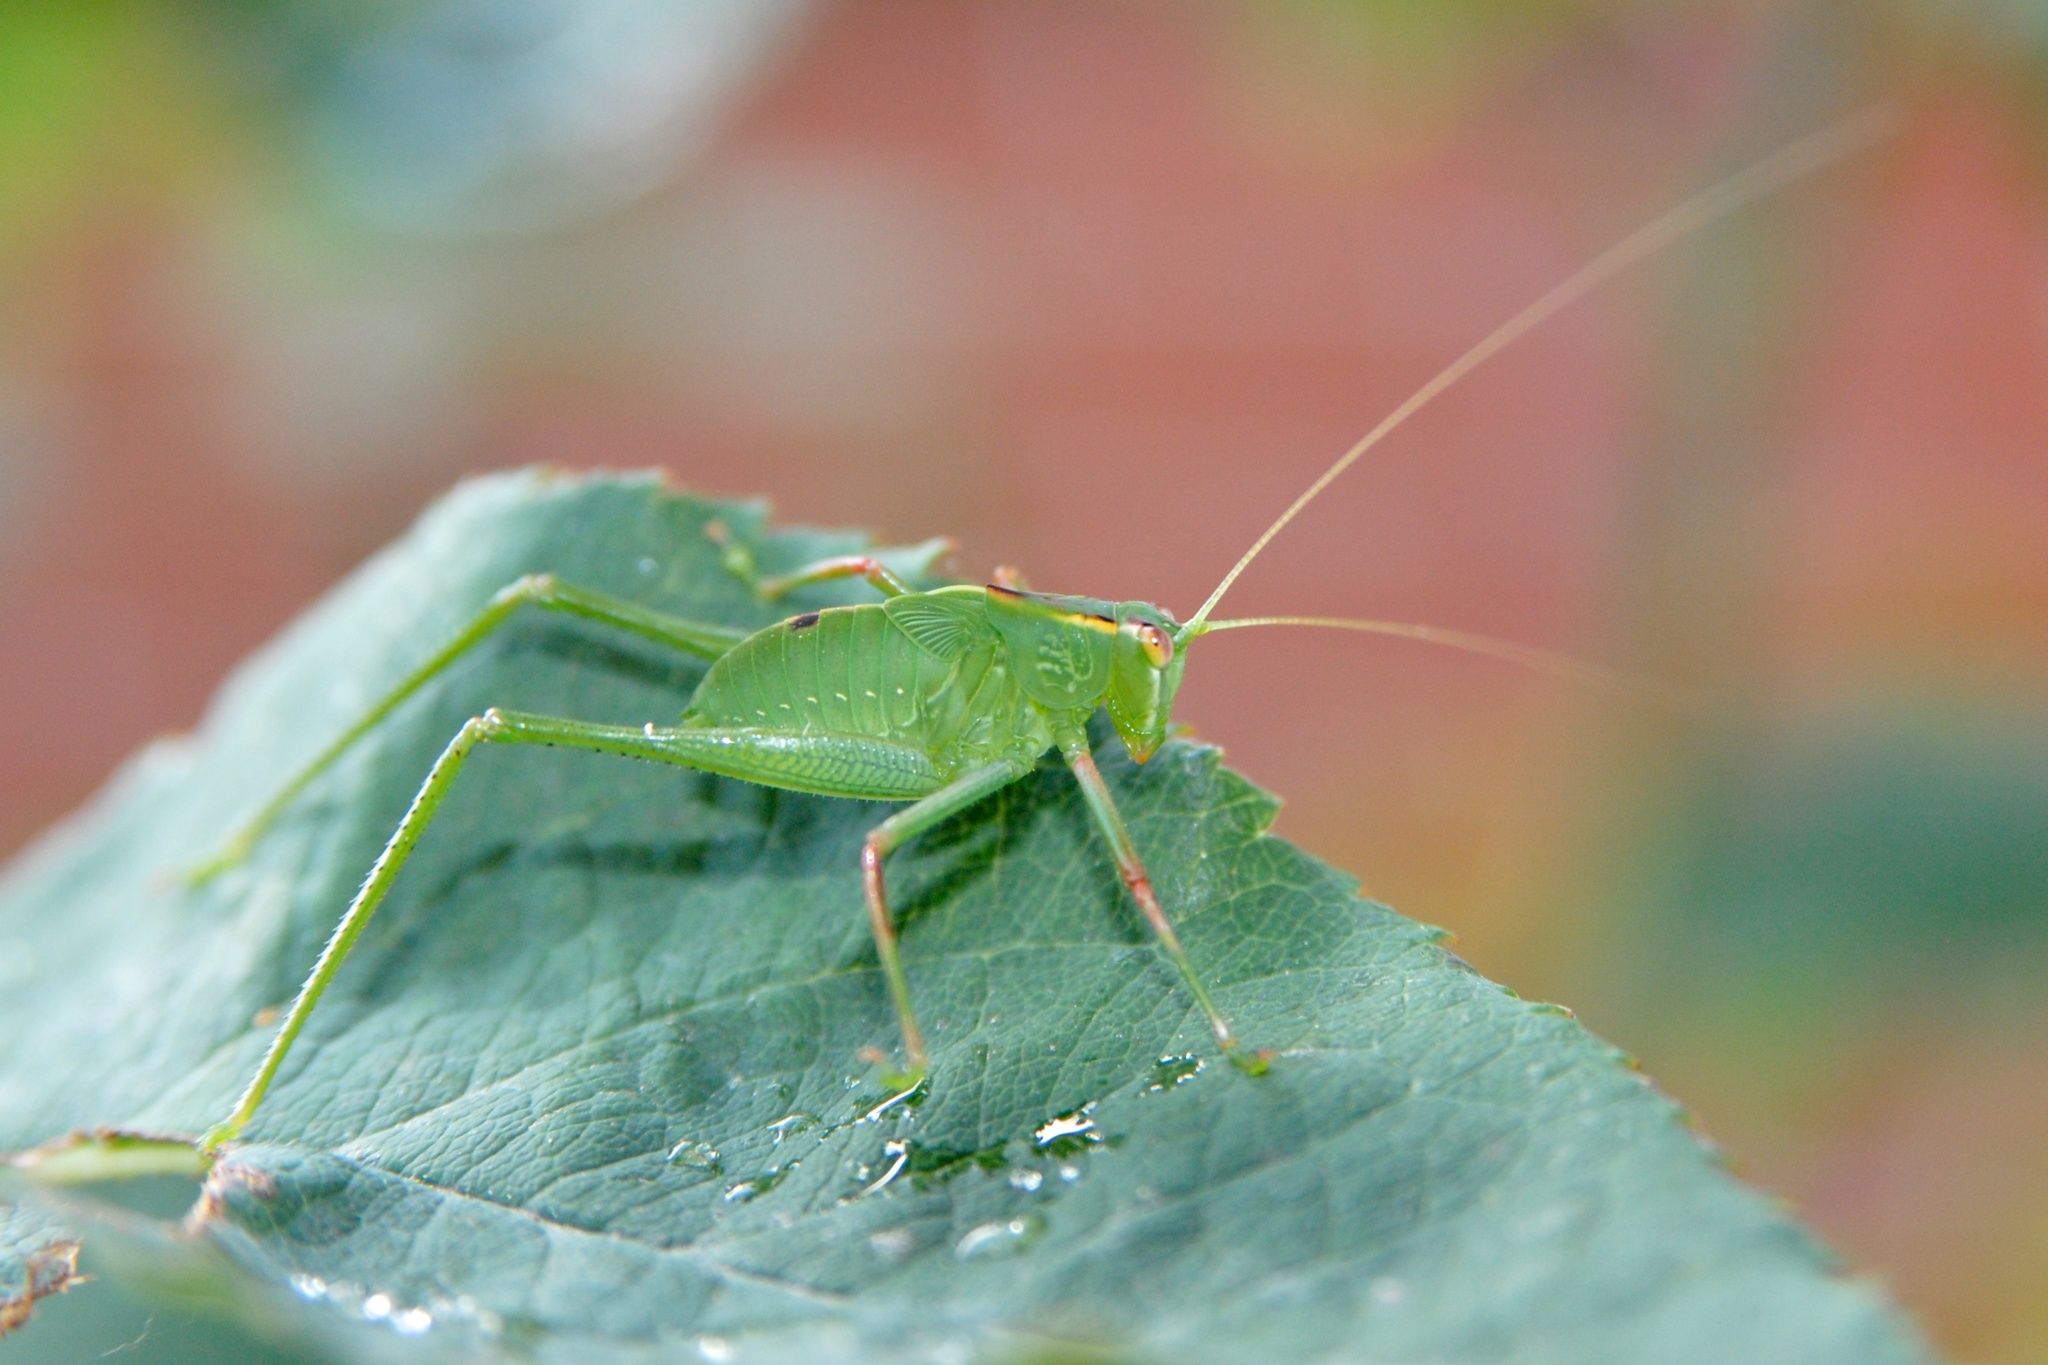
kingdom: Animalia
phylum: Arthropoda
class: Insecta
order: Orthoptera
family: Tettigoniidae
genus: Caedicia
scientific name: Caedicia simplex
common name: Common garden katydid
